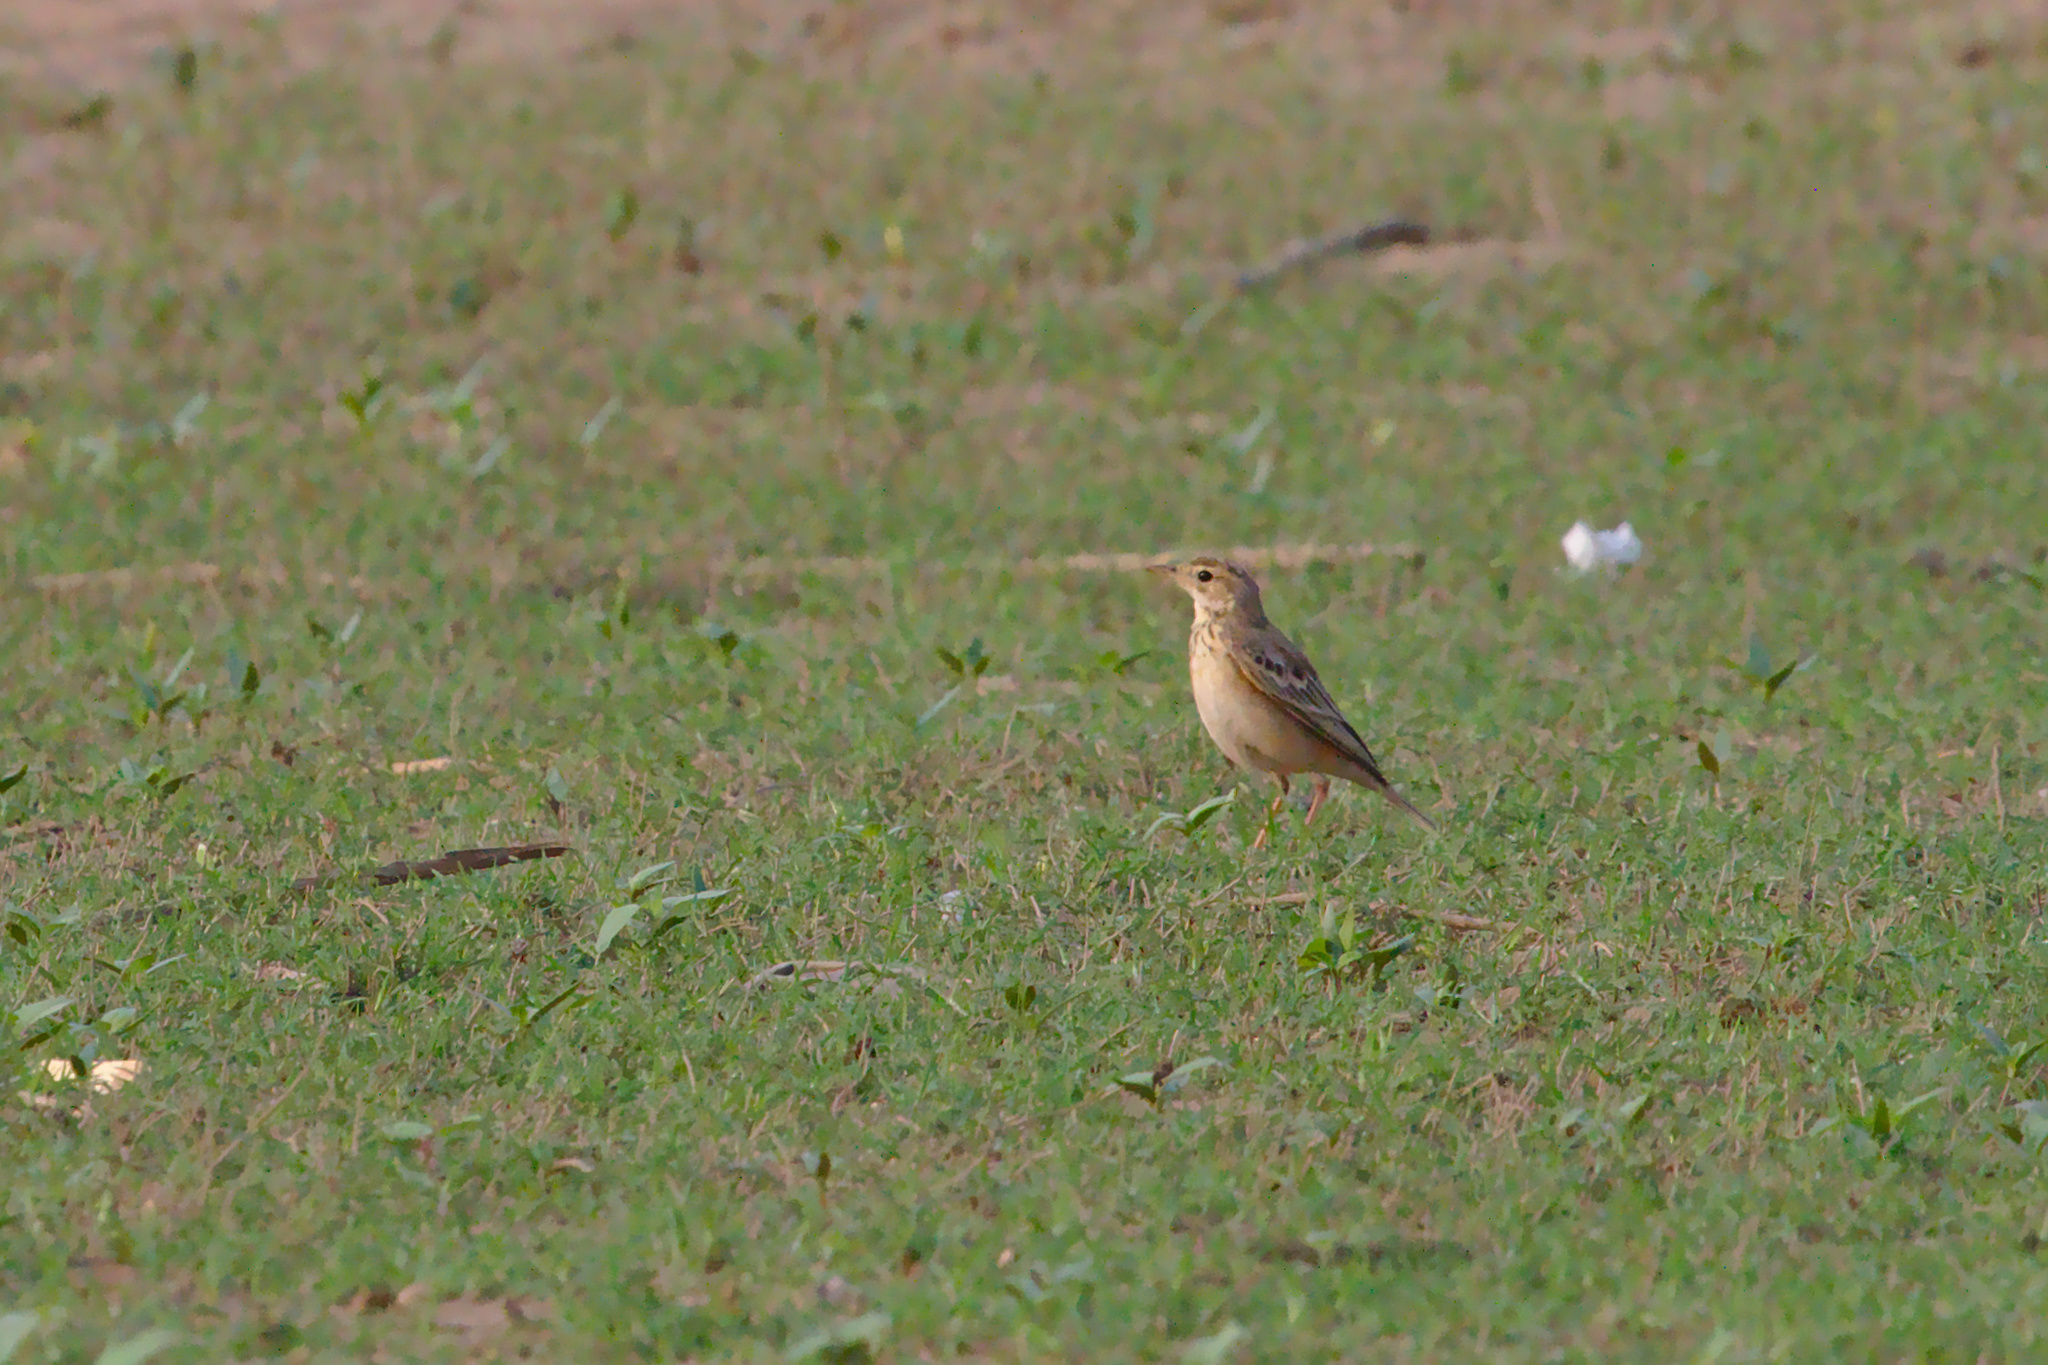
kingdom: Animalia
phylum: Chordata
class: Aves
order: Passeriformes
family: Motacillidae
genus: Anthus
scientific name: Anthus rufulus
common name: Paddyfield pipit
